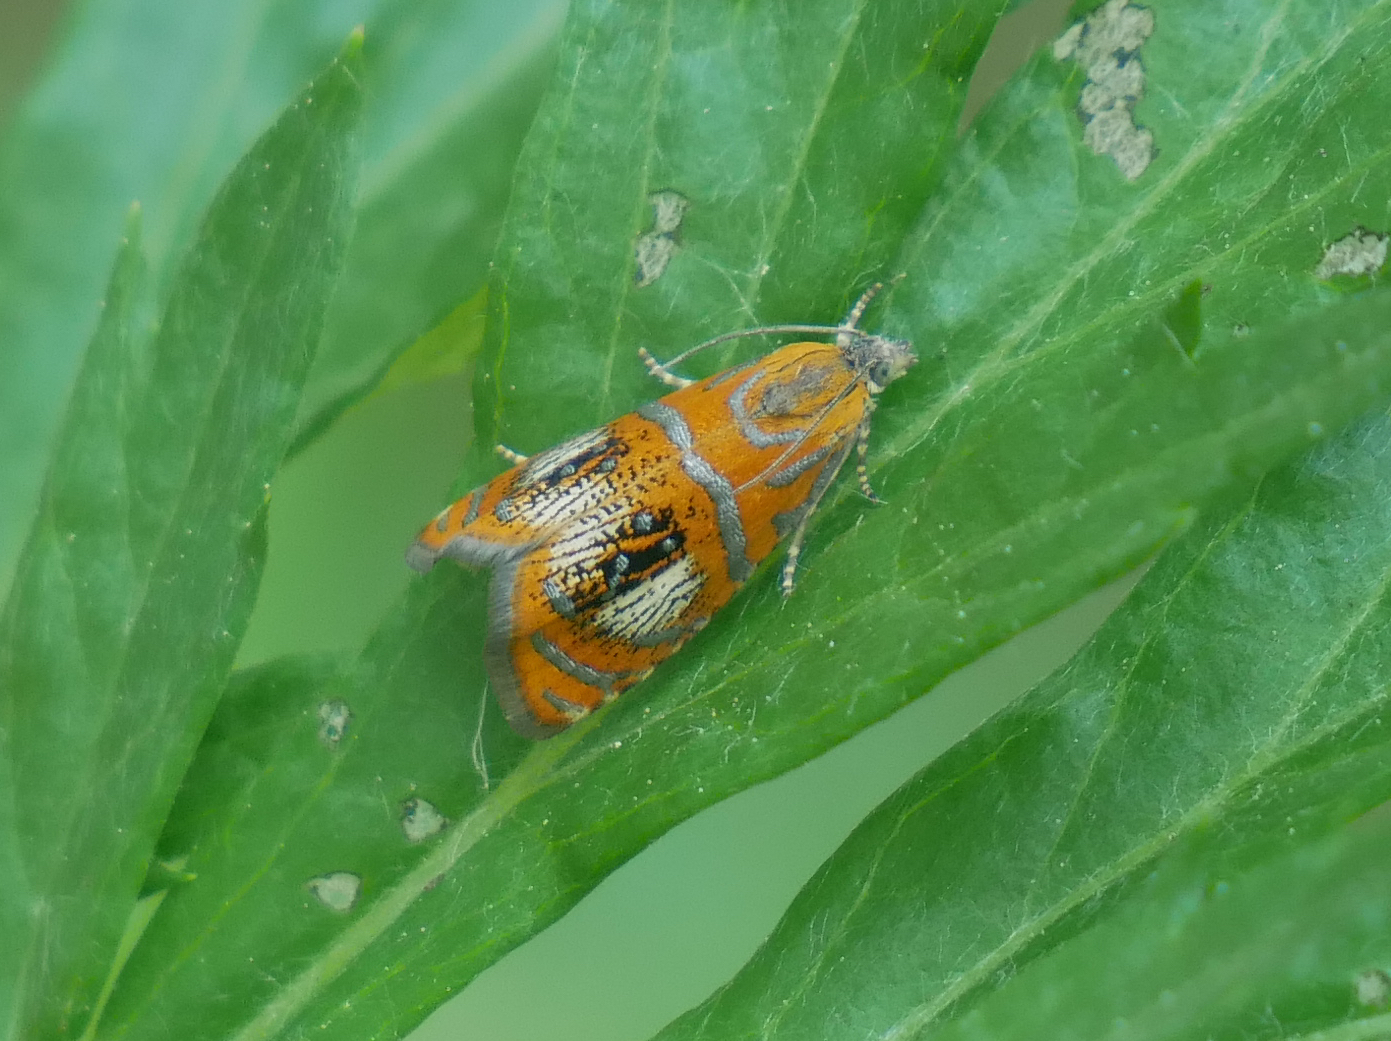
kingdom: Animalia
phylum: Arthropoda
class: Insecta
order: Lepidoptera
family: Tortricidae
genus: Olethreutes
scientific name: Olethreutes arcuella
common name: Arched marble
